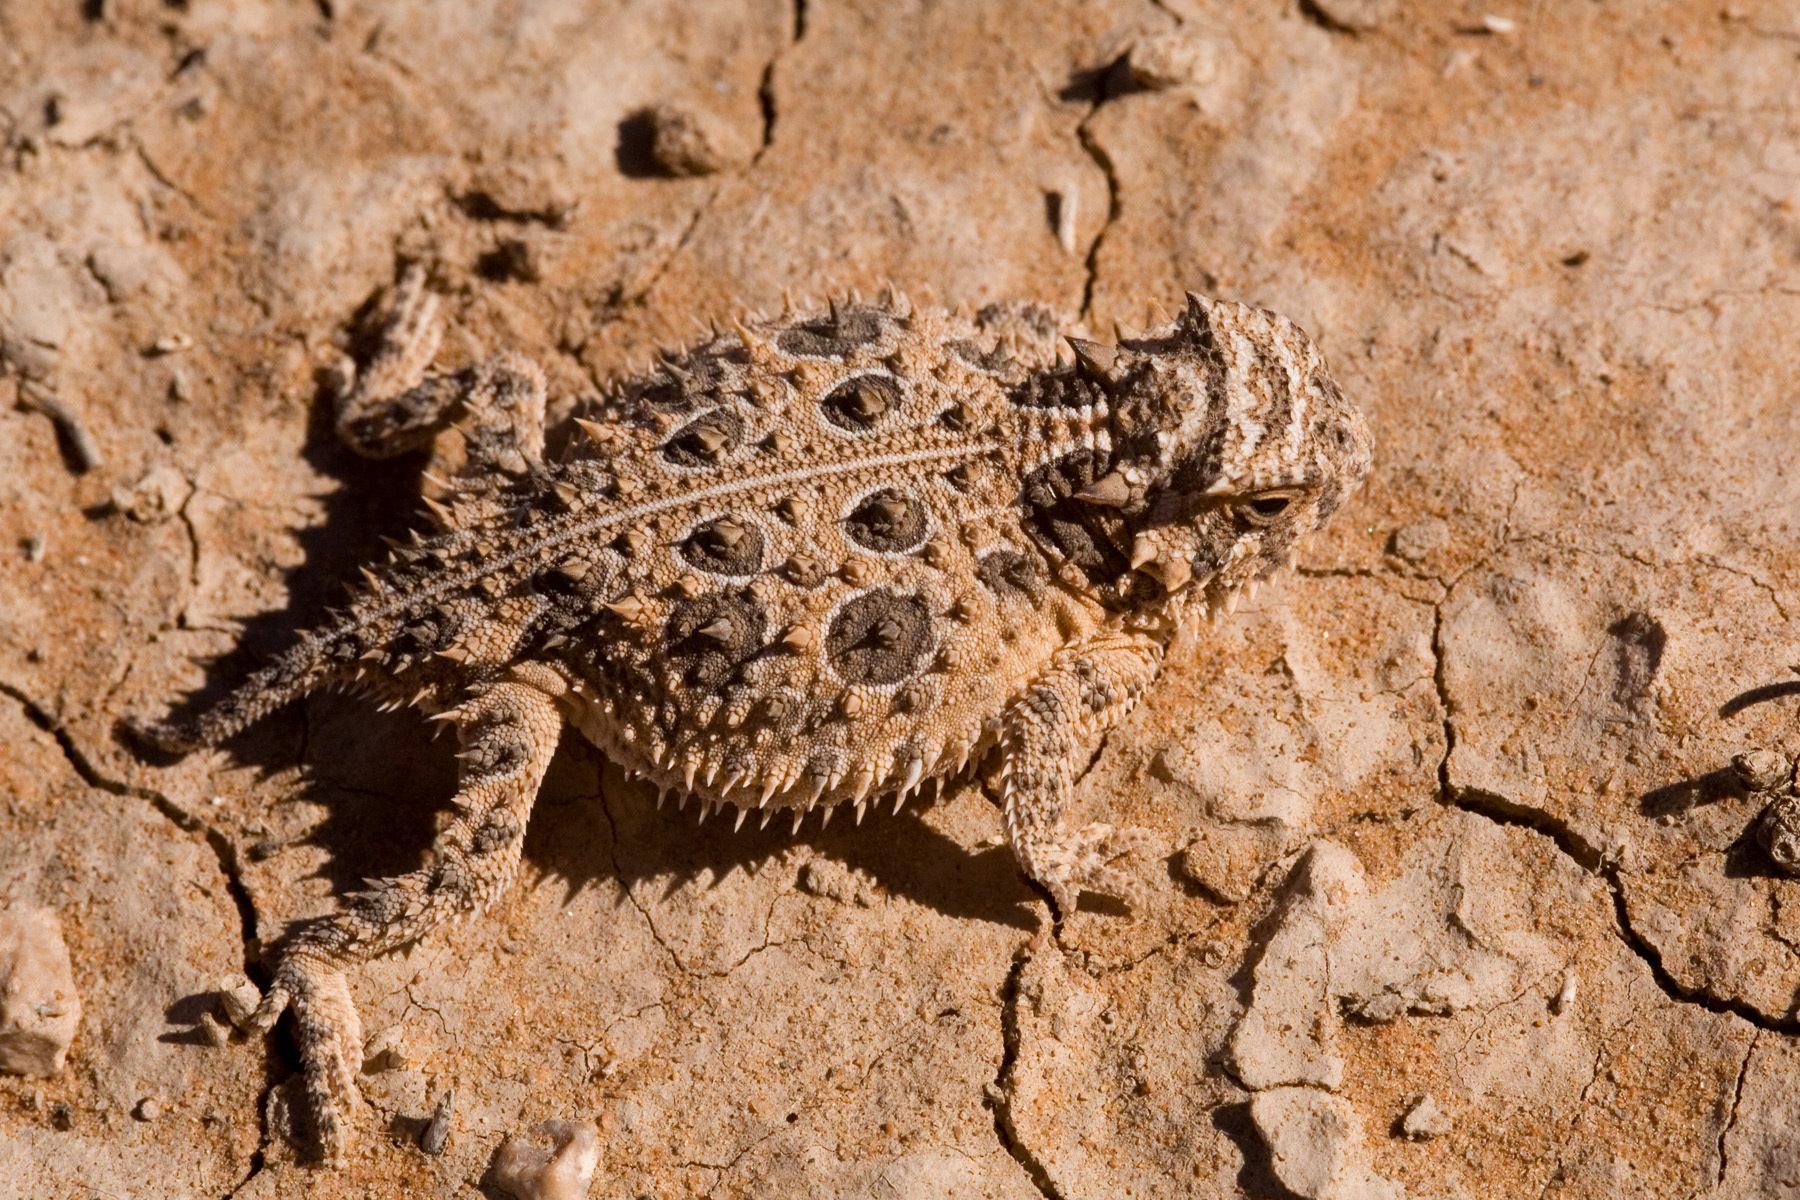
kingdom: Animalia
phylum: Chordata
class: Squamata
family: Phrynosomatidae
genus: Phrynosoma
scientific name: Phrynosoma cornutum
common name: Texas horned lizard
